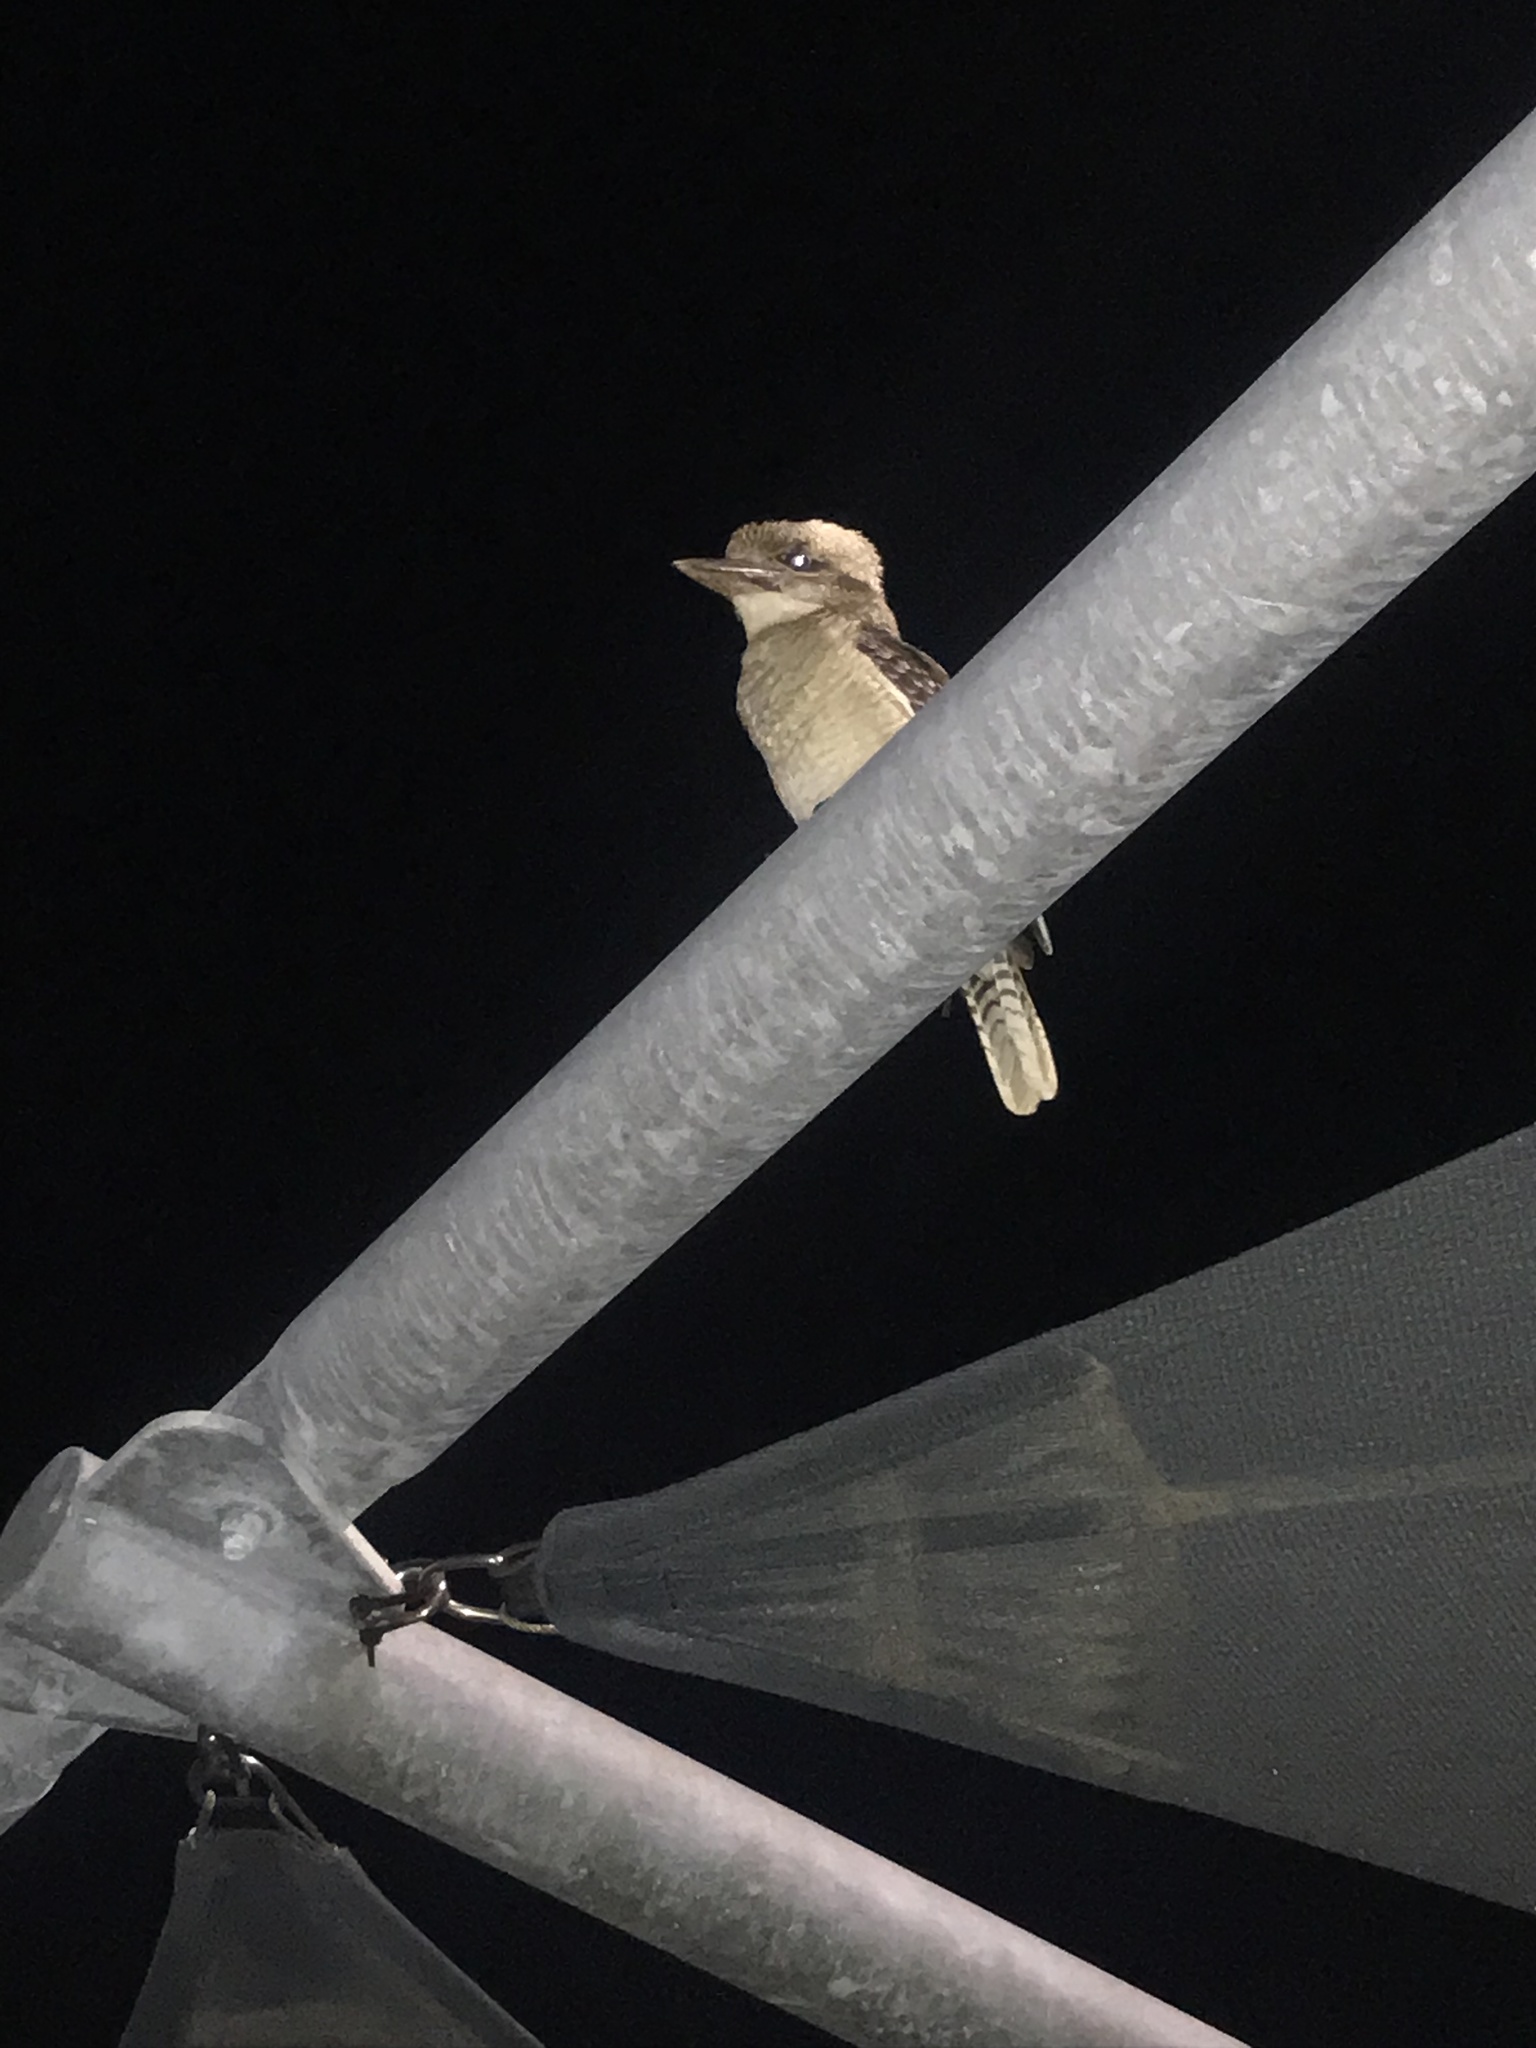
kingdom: Animalia
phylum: Chordata
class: Aves
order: Coraciiformes
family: Alcedinidae
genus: Dacelo
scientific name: Dacelo novaeguineae
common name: Laughing kookaburra
